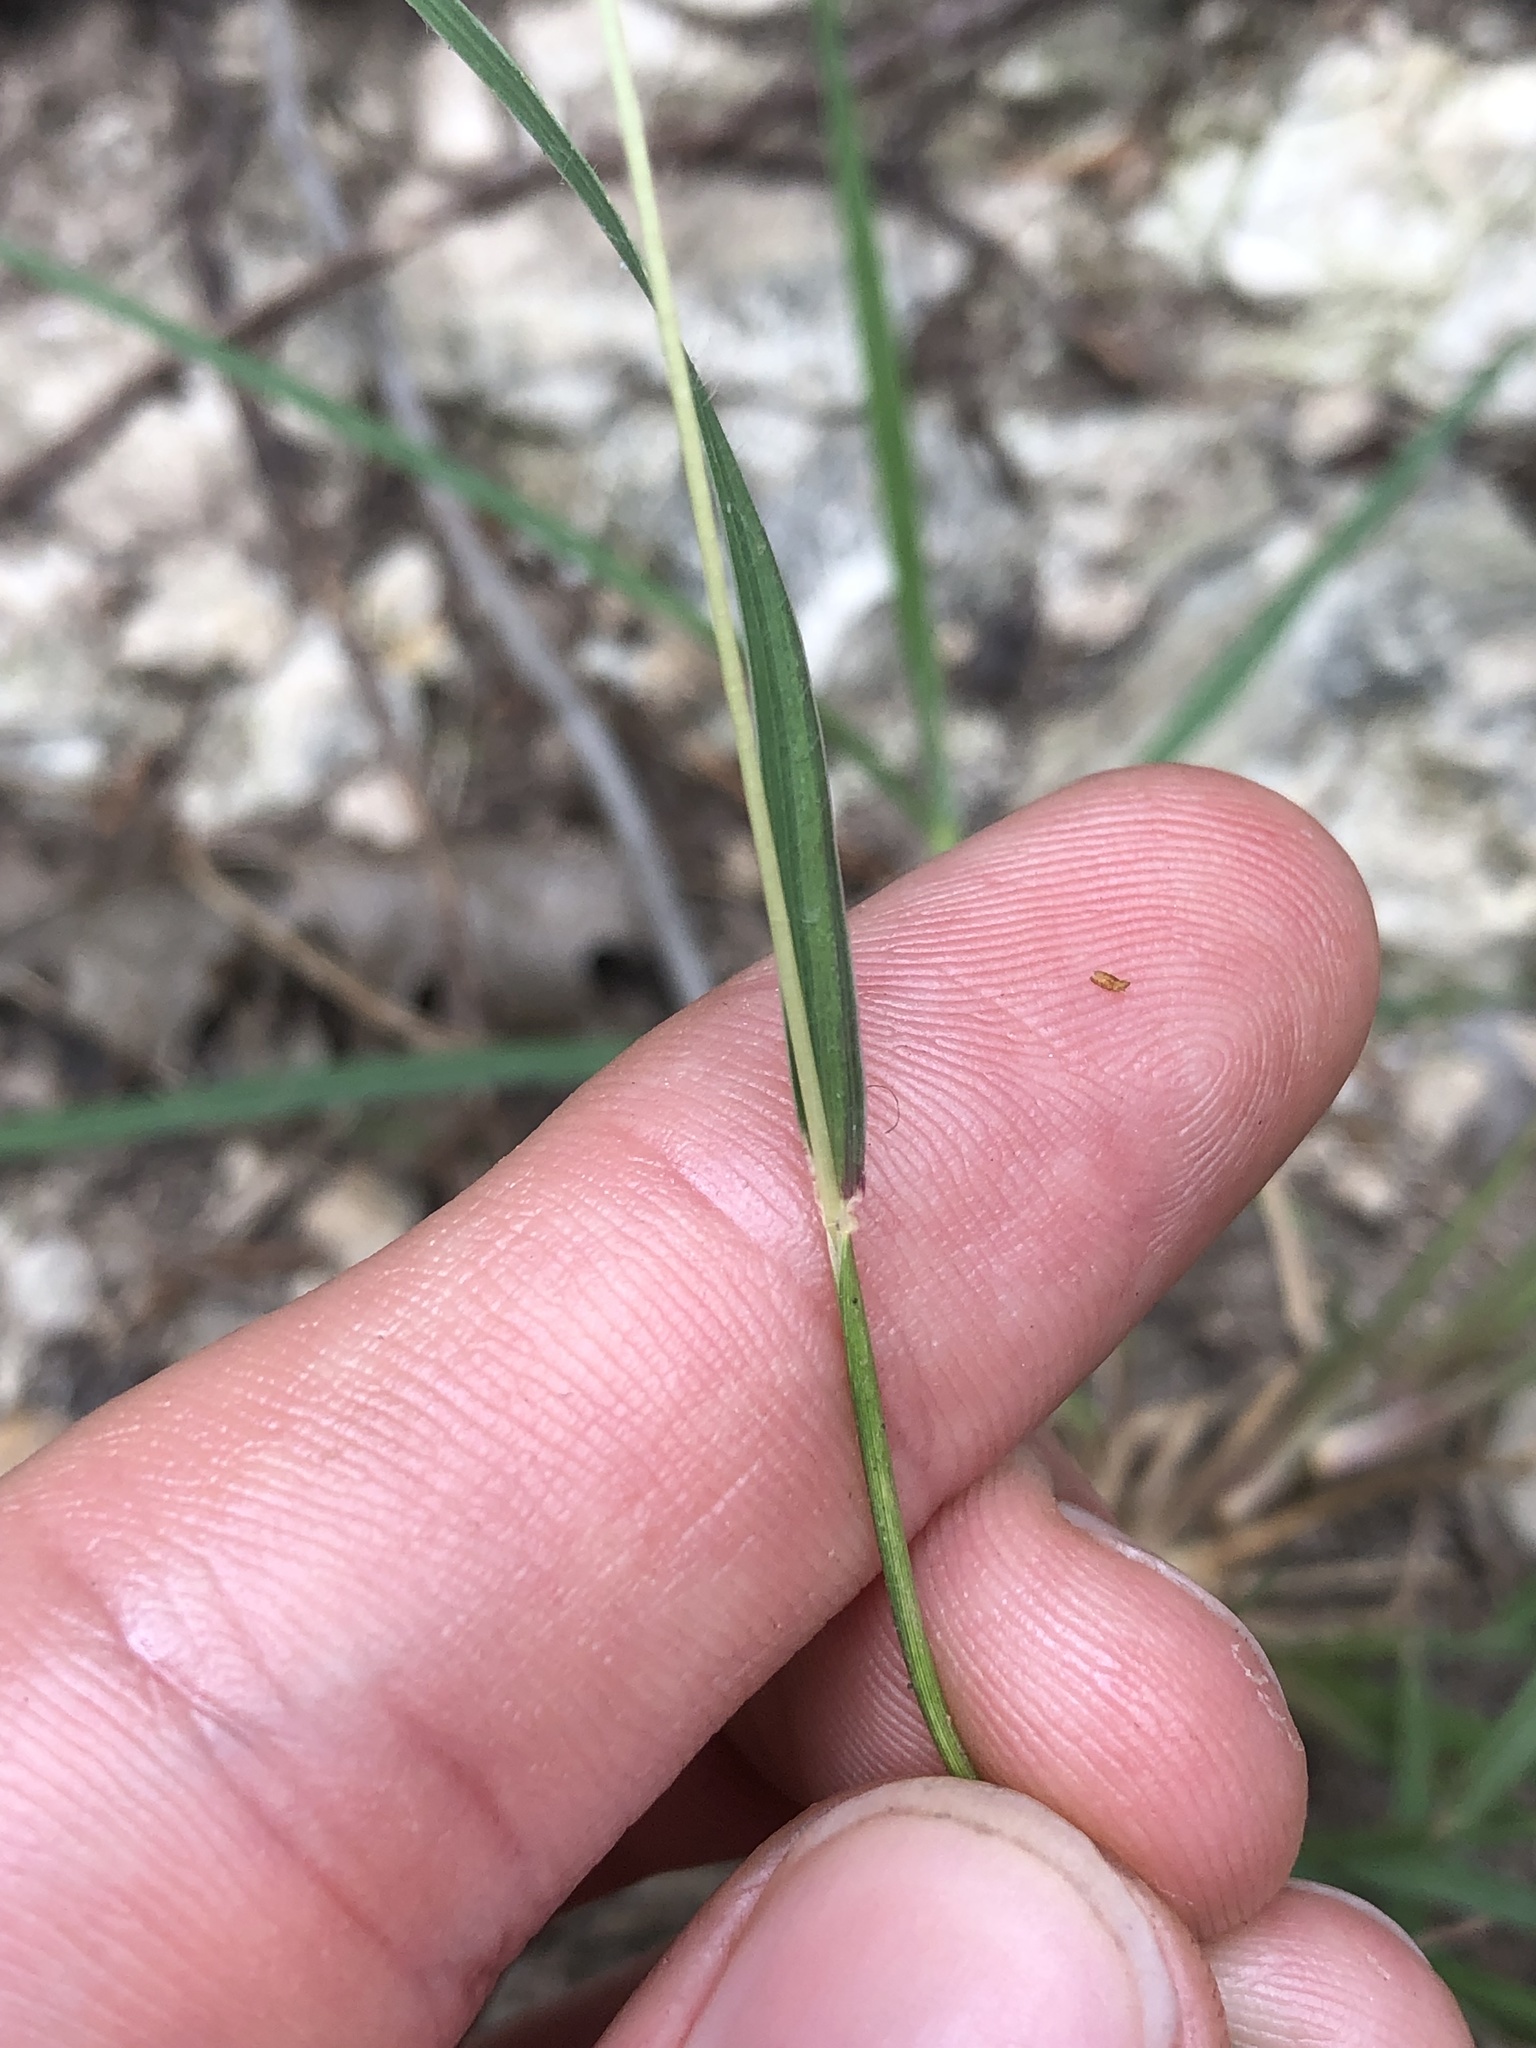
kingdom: Plantae
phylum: Tracheophyta
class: Liliopsida
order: Poales
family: Poaceae
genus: Bothriochloa
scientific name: Bothriochloa ischaemum
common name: Yellow bluestem
